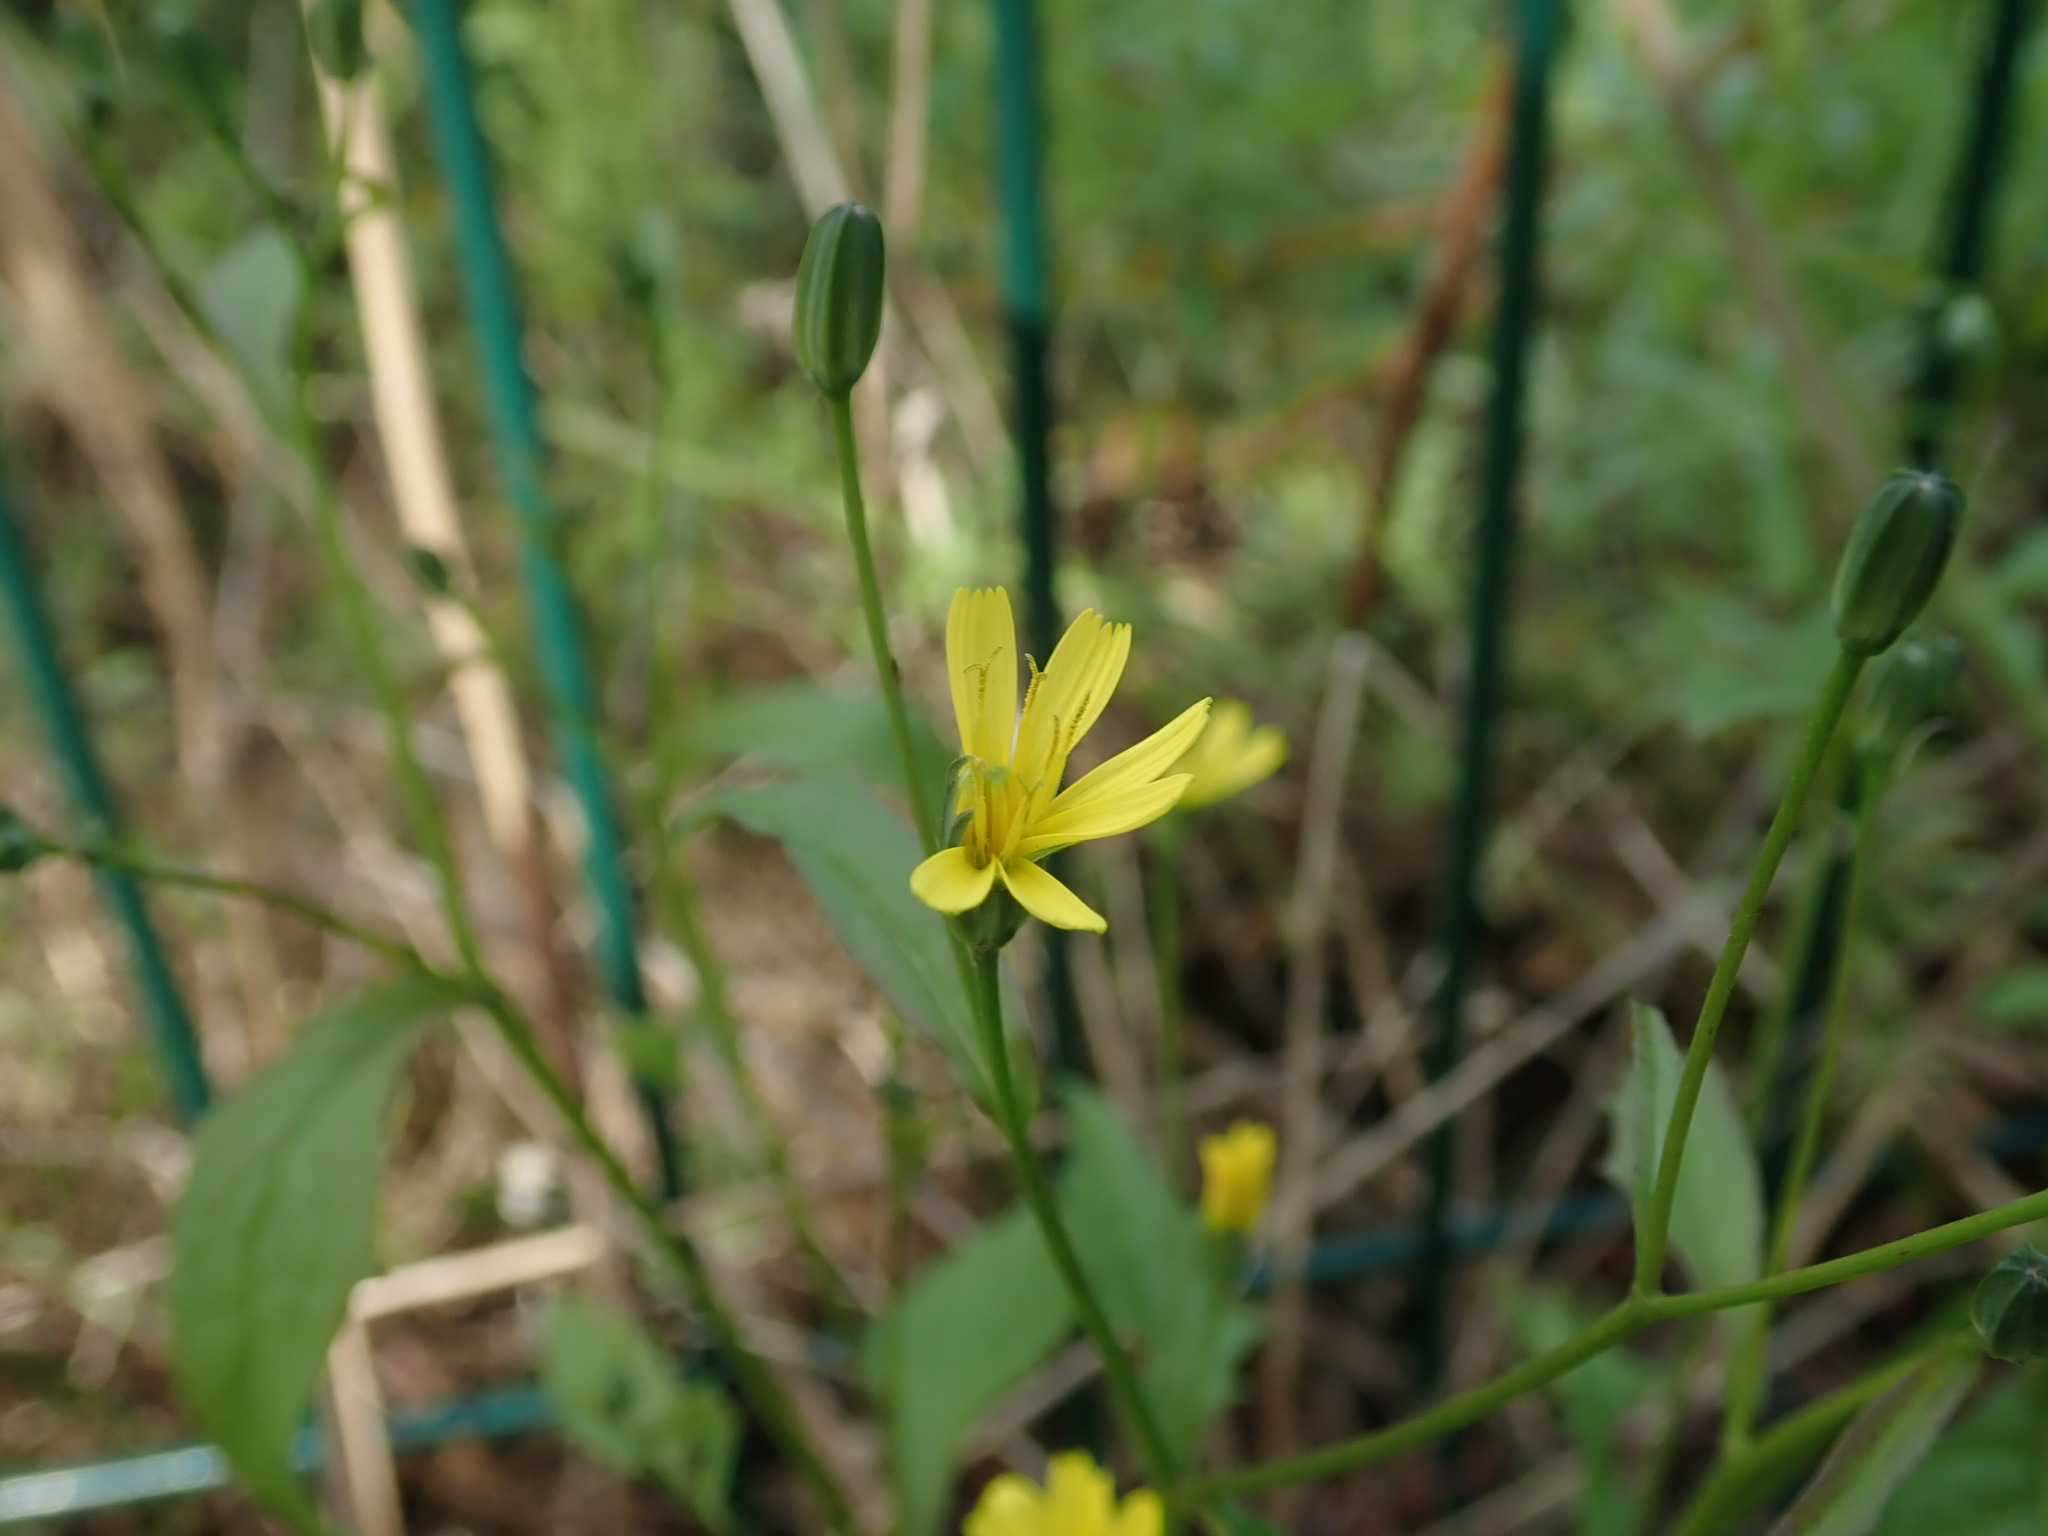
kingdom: Plantae
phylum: Tracheophyta
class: Magnoliopsida
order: Asterales
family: Asteraceae
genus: Lapsana
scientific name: Lapsana communis
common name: Nipplewort
